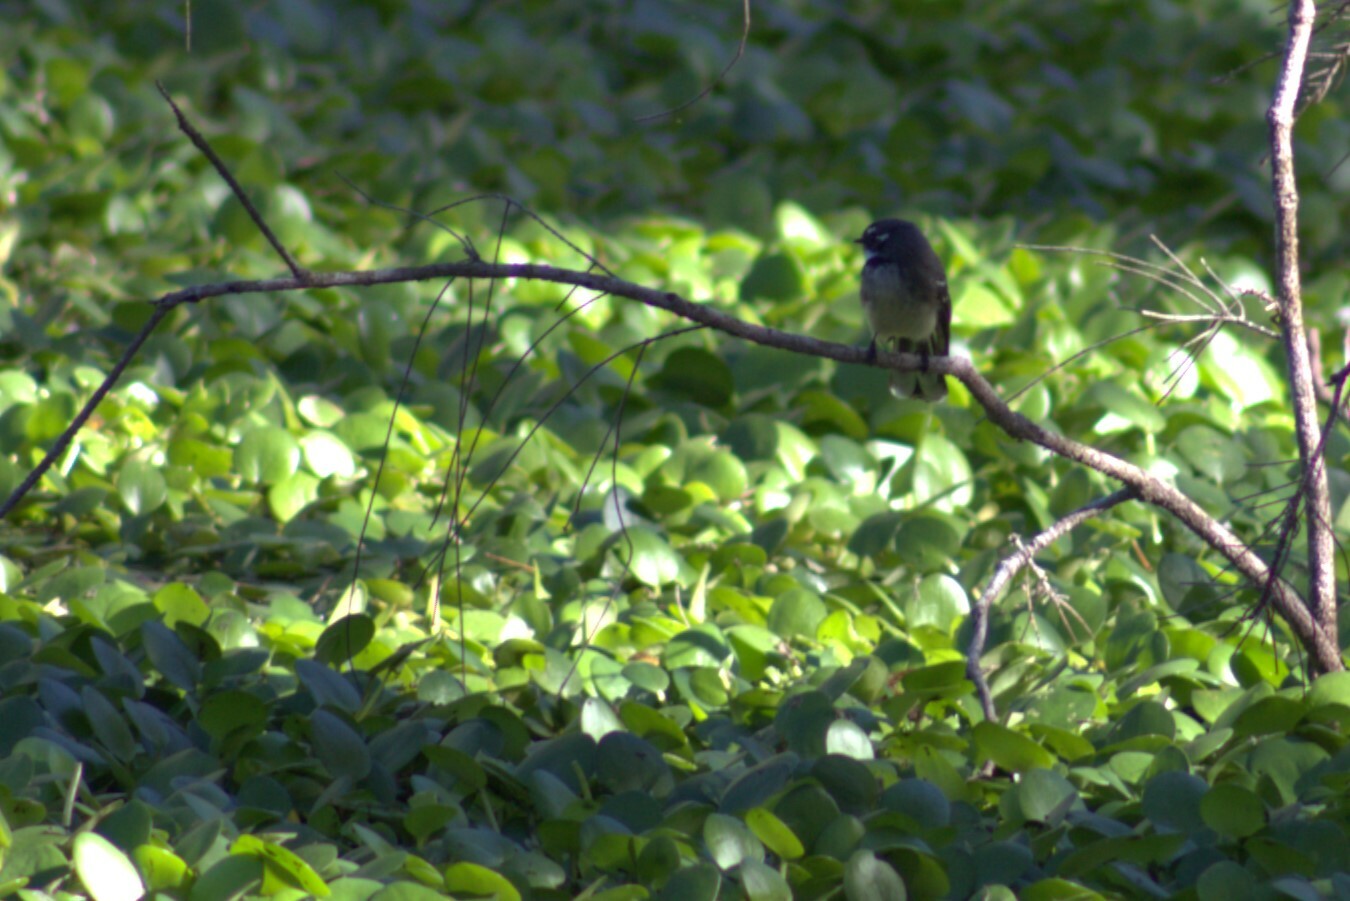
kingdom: Animalia
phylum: Chordata
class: Aves
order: Passeriformes
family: Rhipiduridae
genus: Rhipidura
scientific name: Rhipidura albiscapa
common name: Grey fantail
